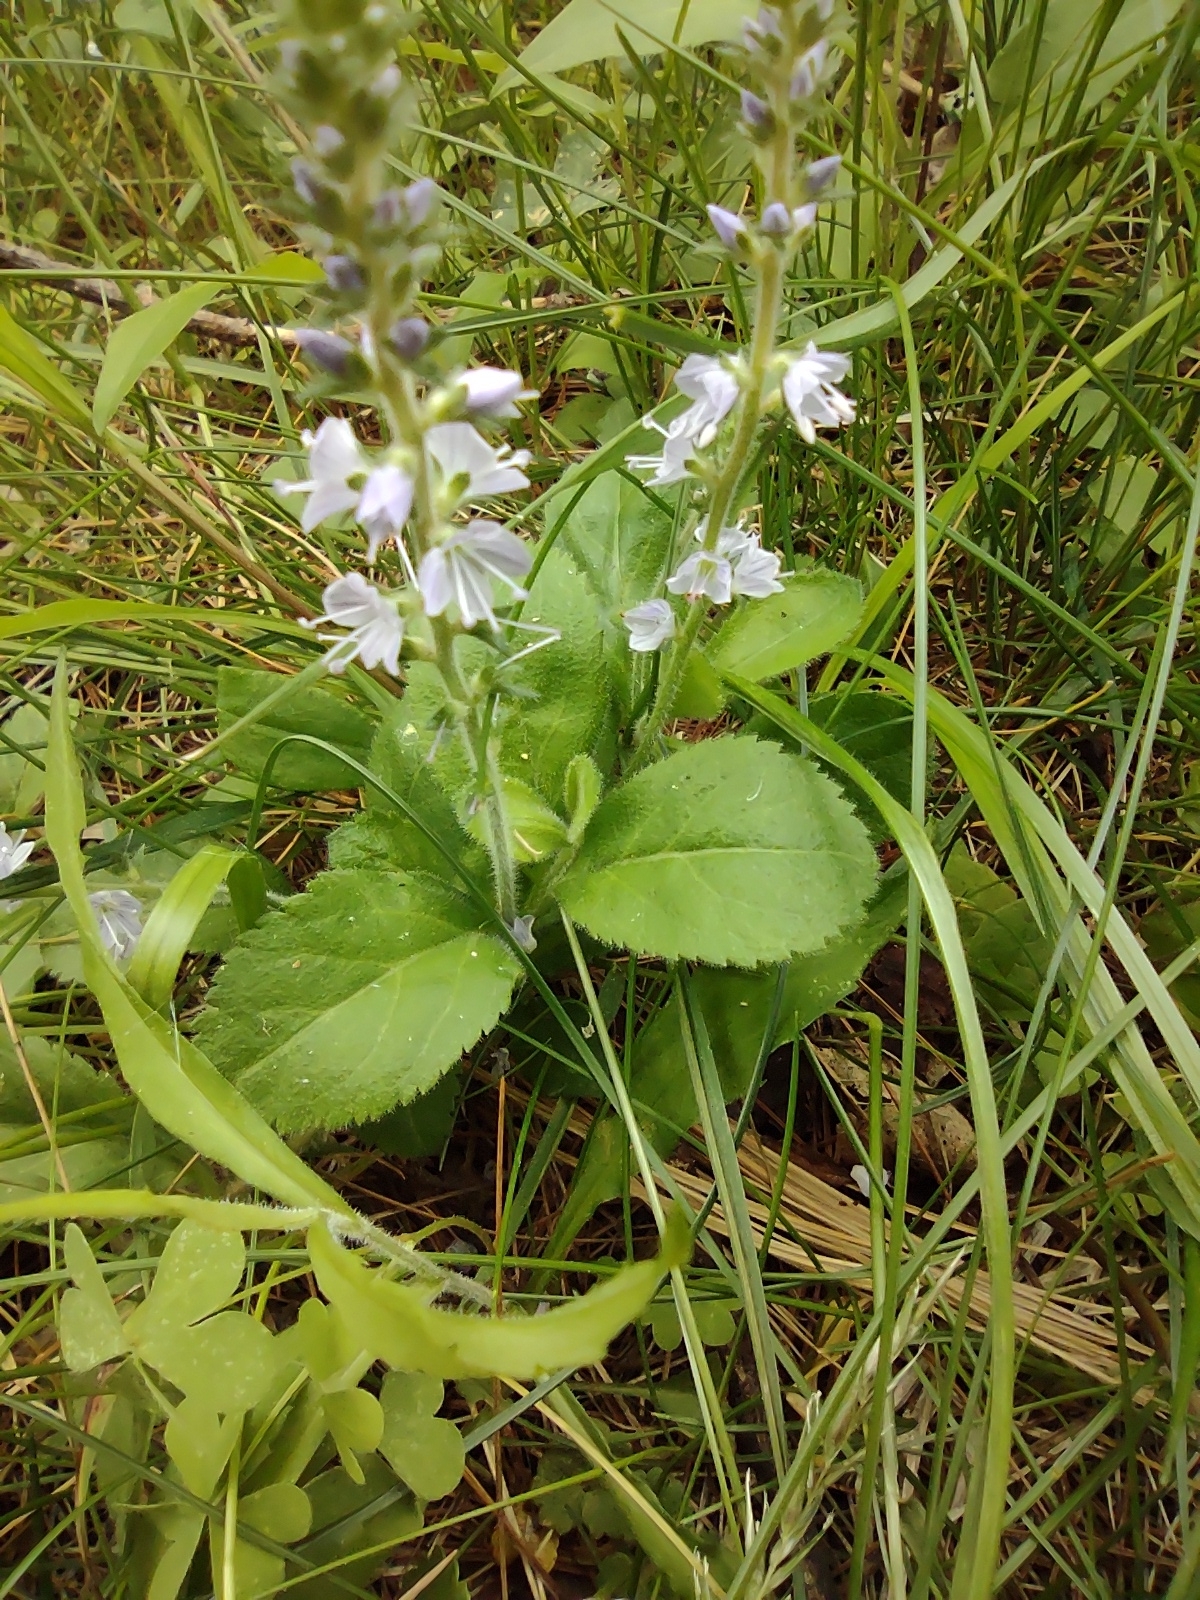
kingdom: Plantae
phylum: Tracheophyta
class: Magnoliopsida
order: Lamiales
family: Plantaginaceae
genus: Veronica
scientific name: Veronica officinalis
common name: Common speedwell
